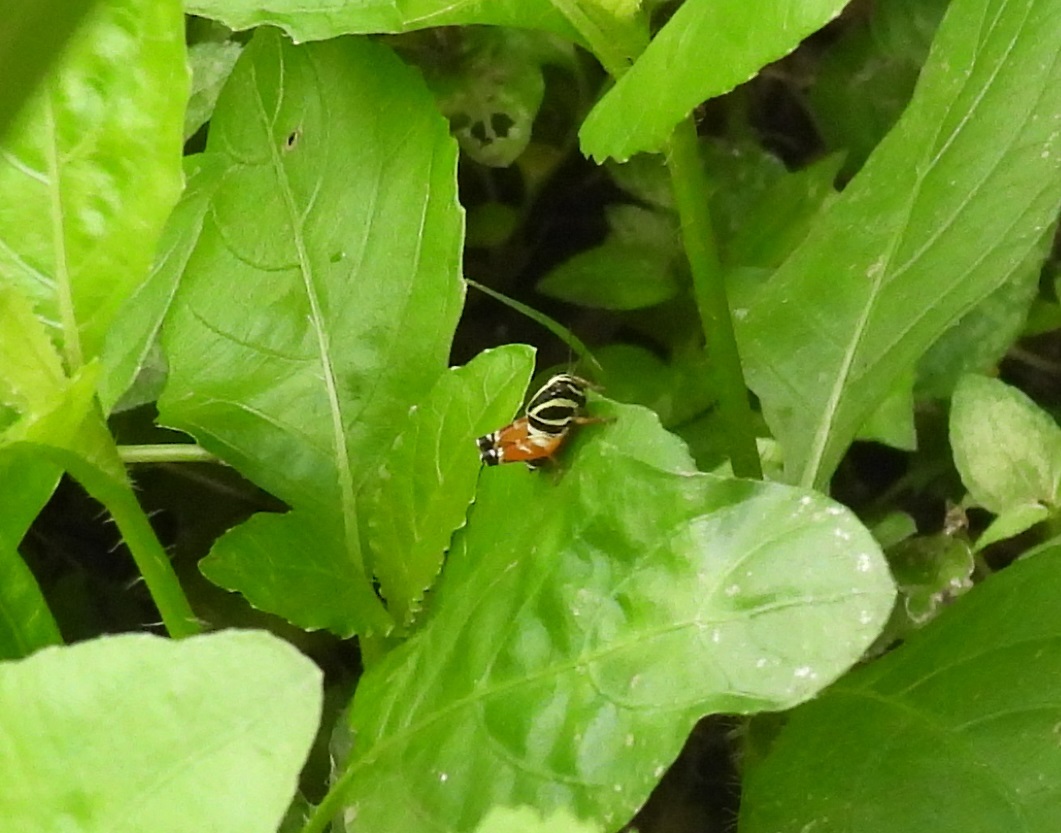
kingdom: Animalia
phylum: Arthropoda
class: Insecta
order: Orthoptera
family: Acrididae
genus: Aidemona
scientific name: Aidemona azteca
